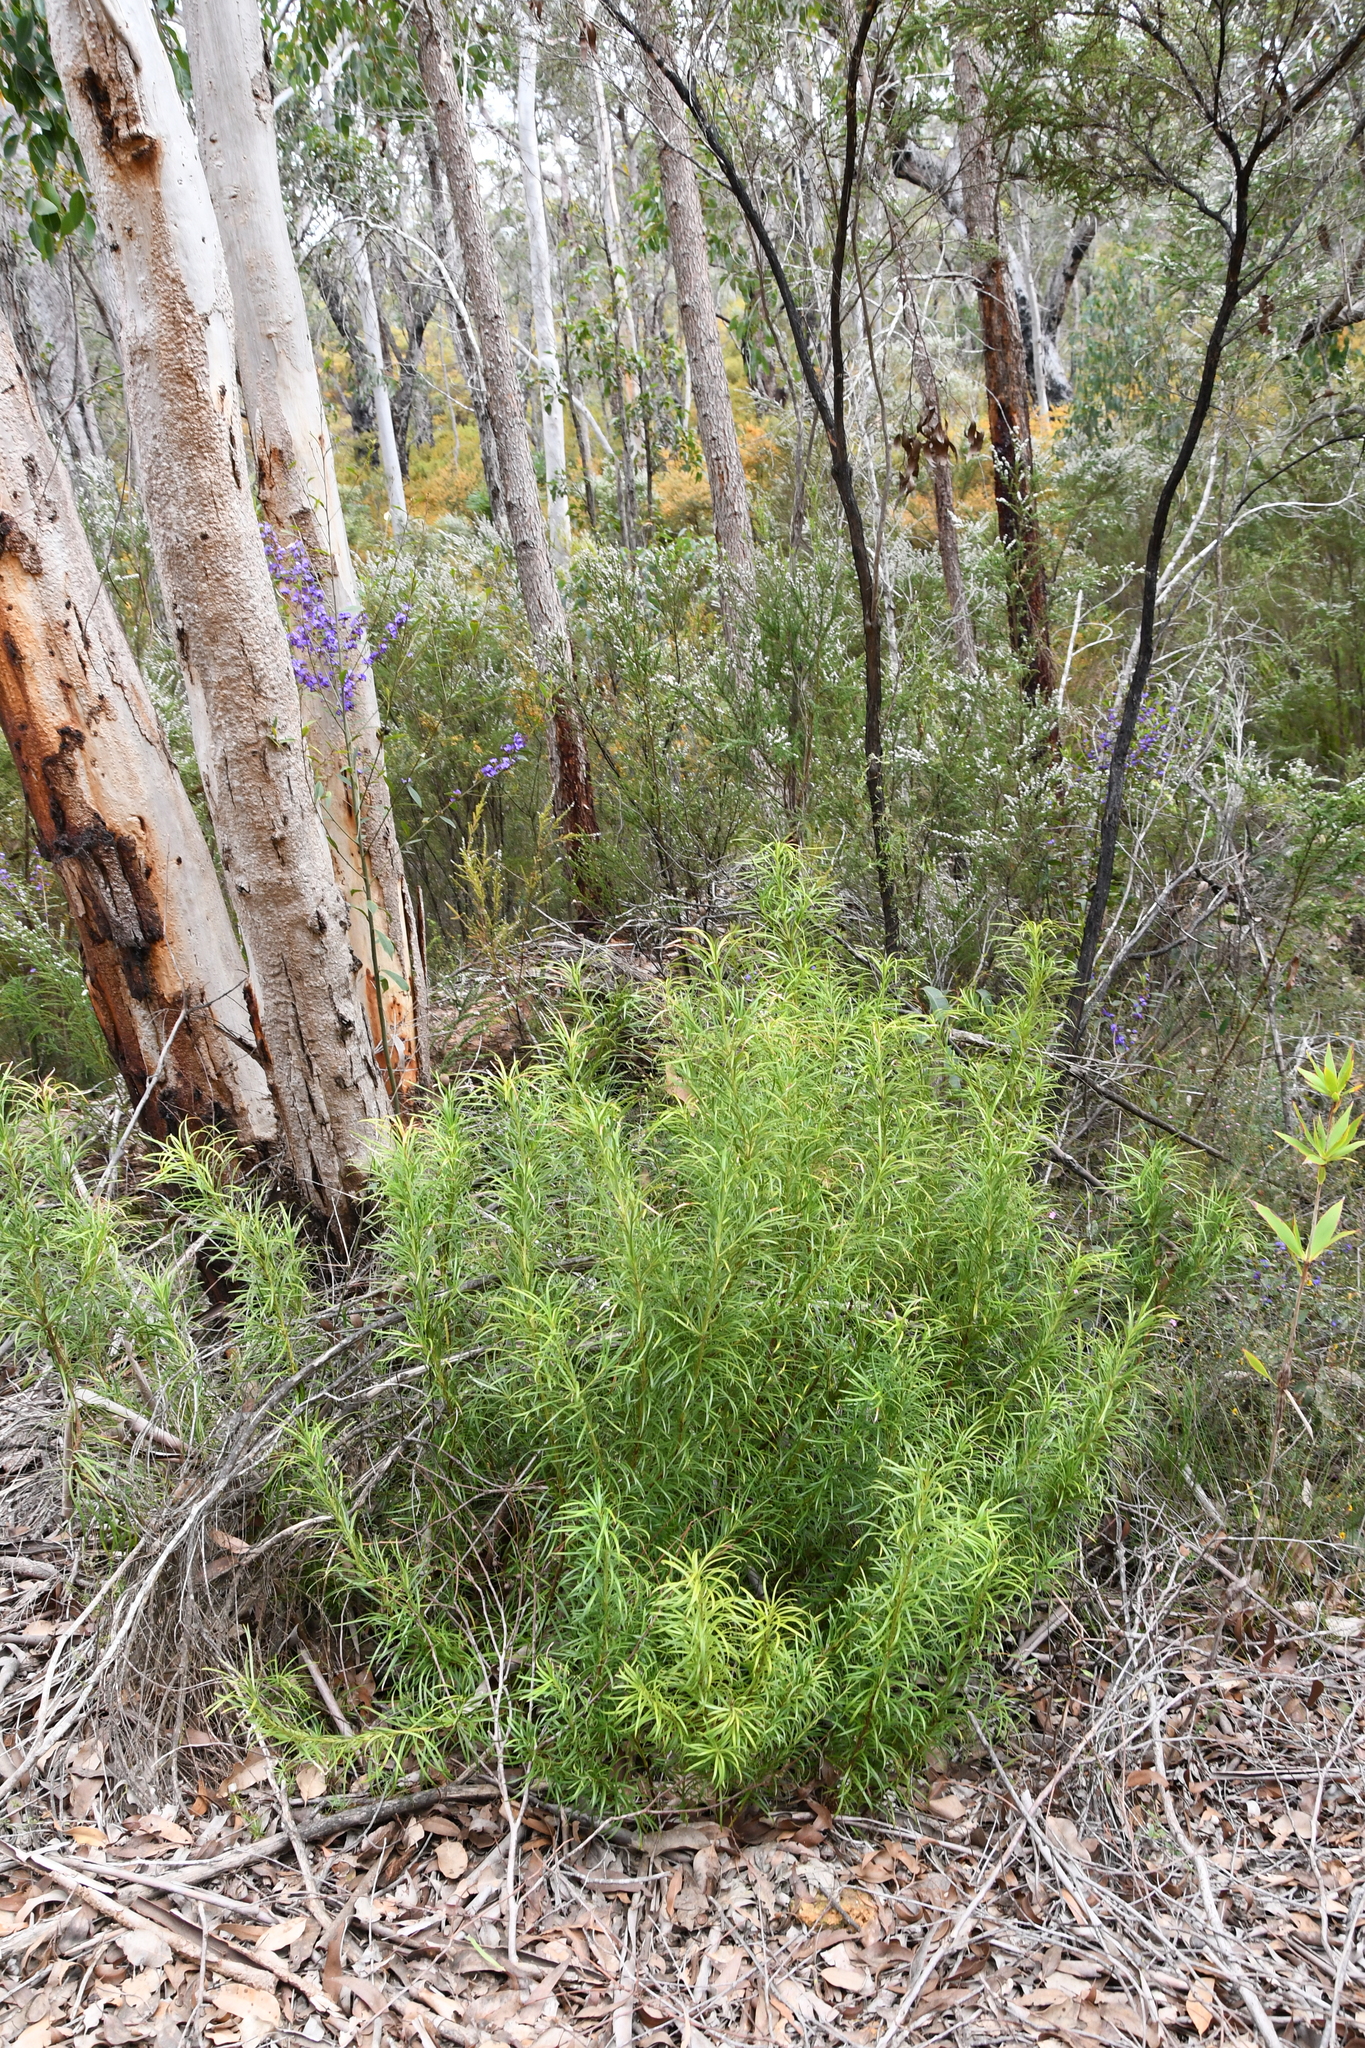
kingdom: Plantae
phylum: Tracheophyta
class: Pinopsida
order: Pinales
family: Podocarpaceae
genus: Podocarpus
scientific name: Podocarpus drouynianus
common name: Emu berry
